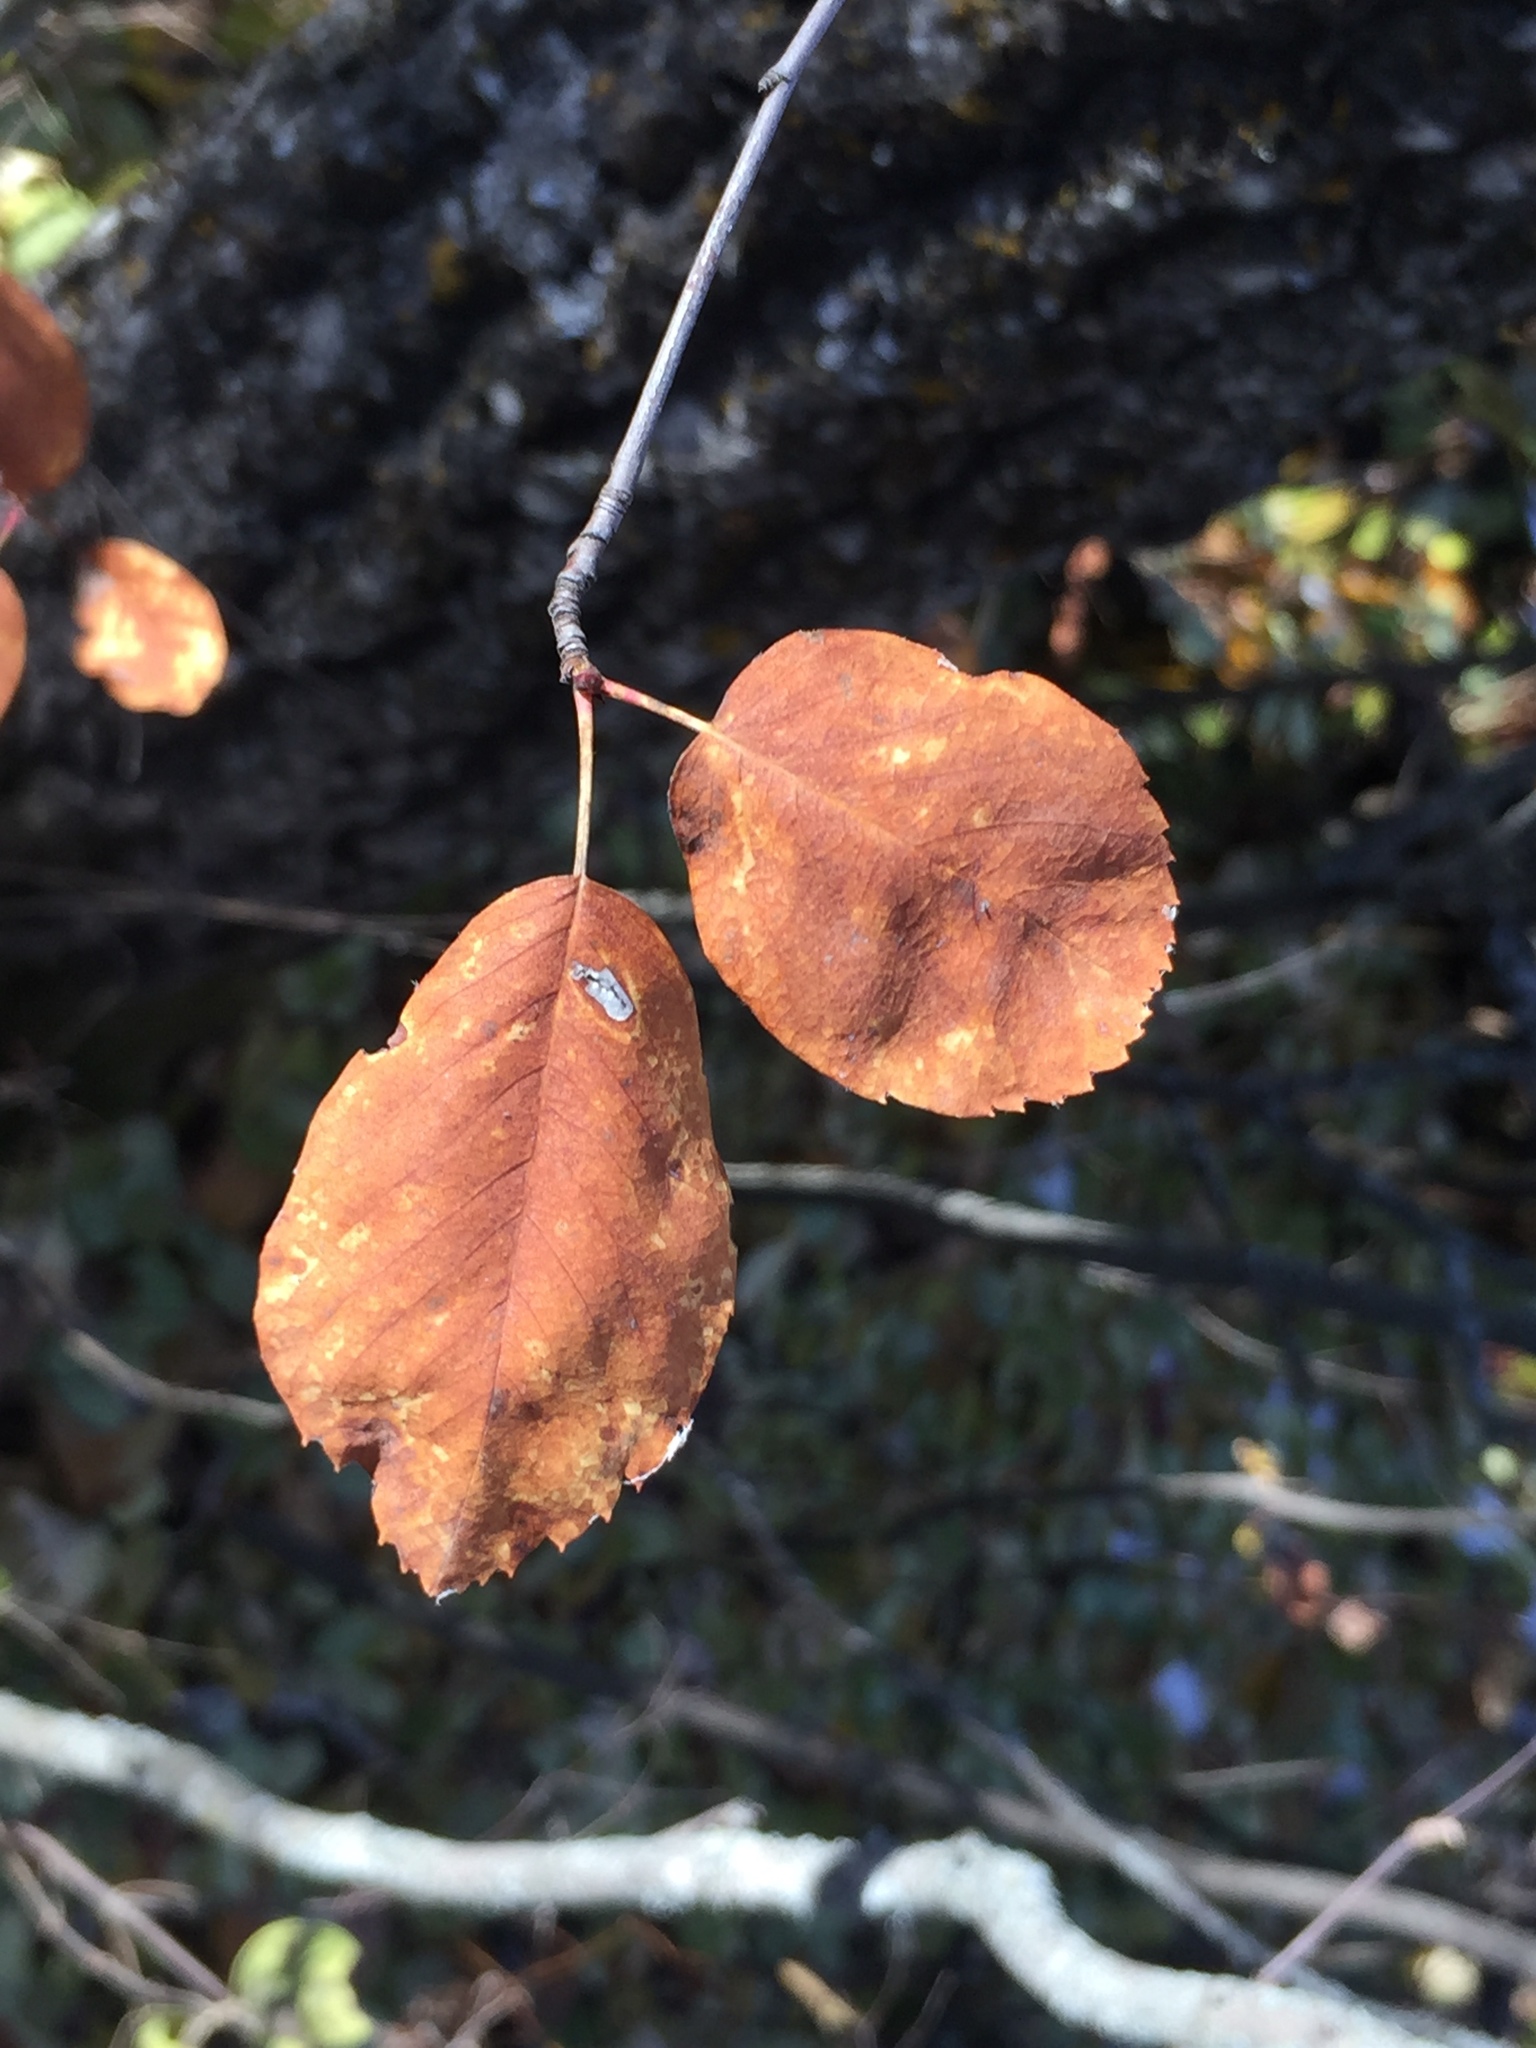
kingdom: Plantae
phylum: Tracheophyta
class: Magnoliopsida
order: Rosales
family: Rosaceae
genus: Amelanchier
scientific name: Amelanchier alnifolia
